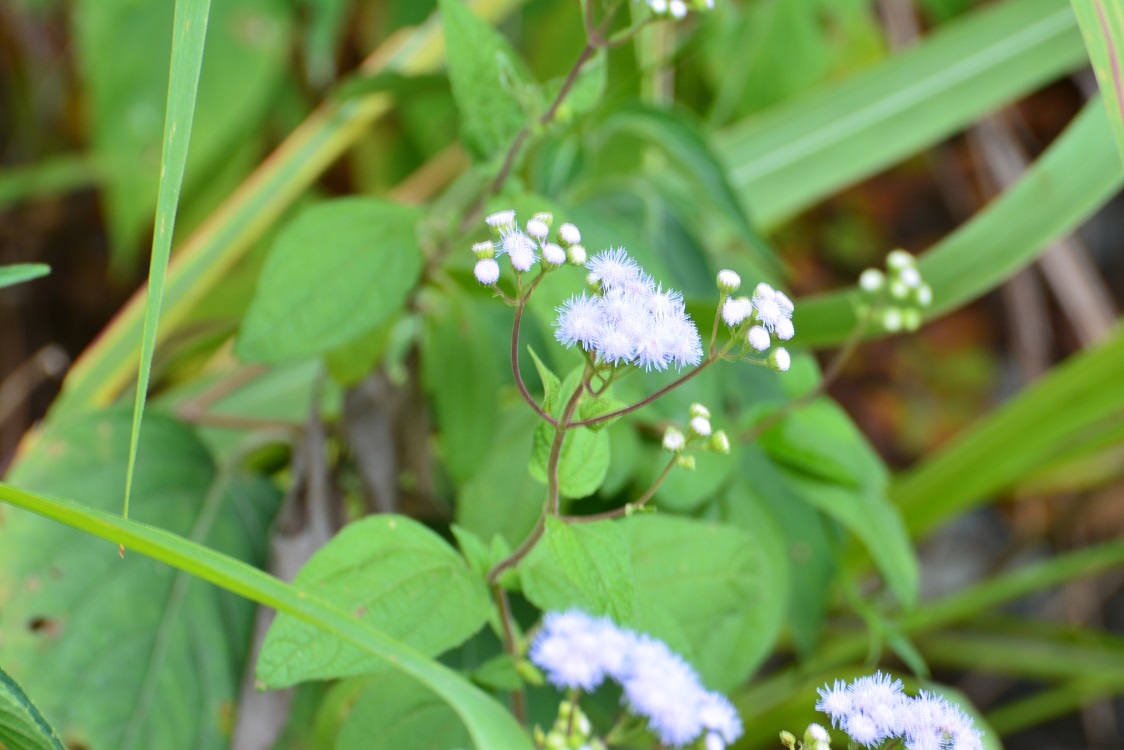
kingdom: Plantae
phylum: Tracheophyta
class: Magnoliopsida
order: Asterales
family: Asteraceae
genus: Ageratum
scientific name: Ageratum corymbosum
